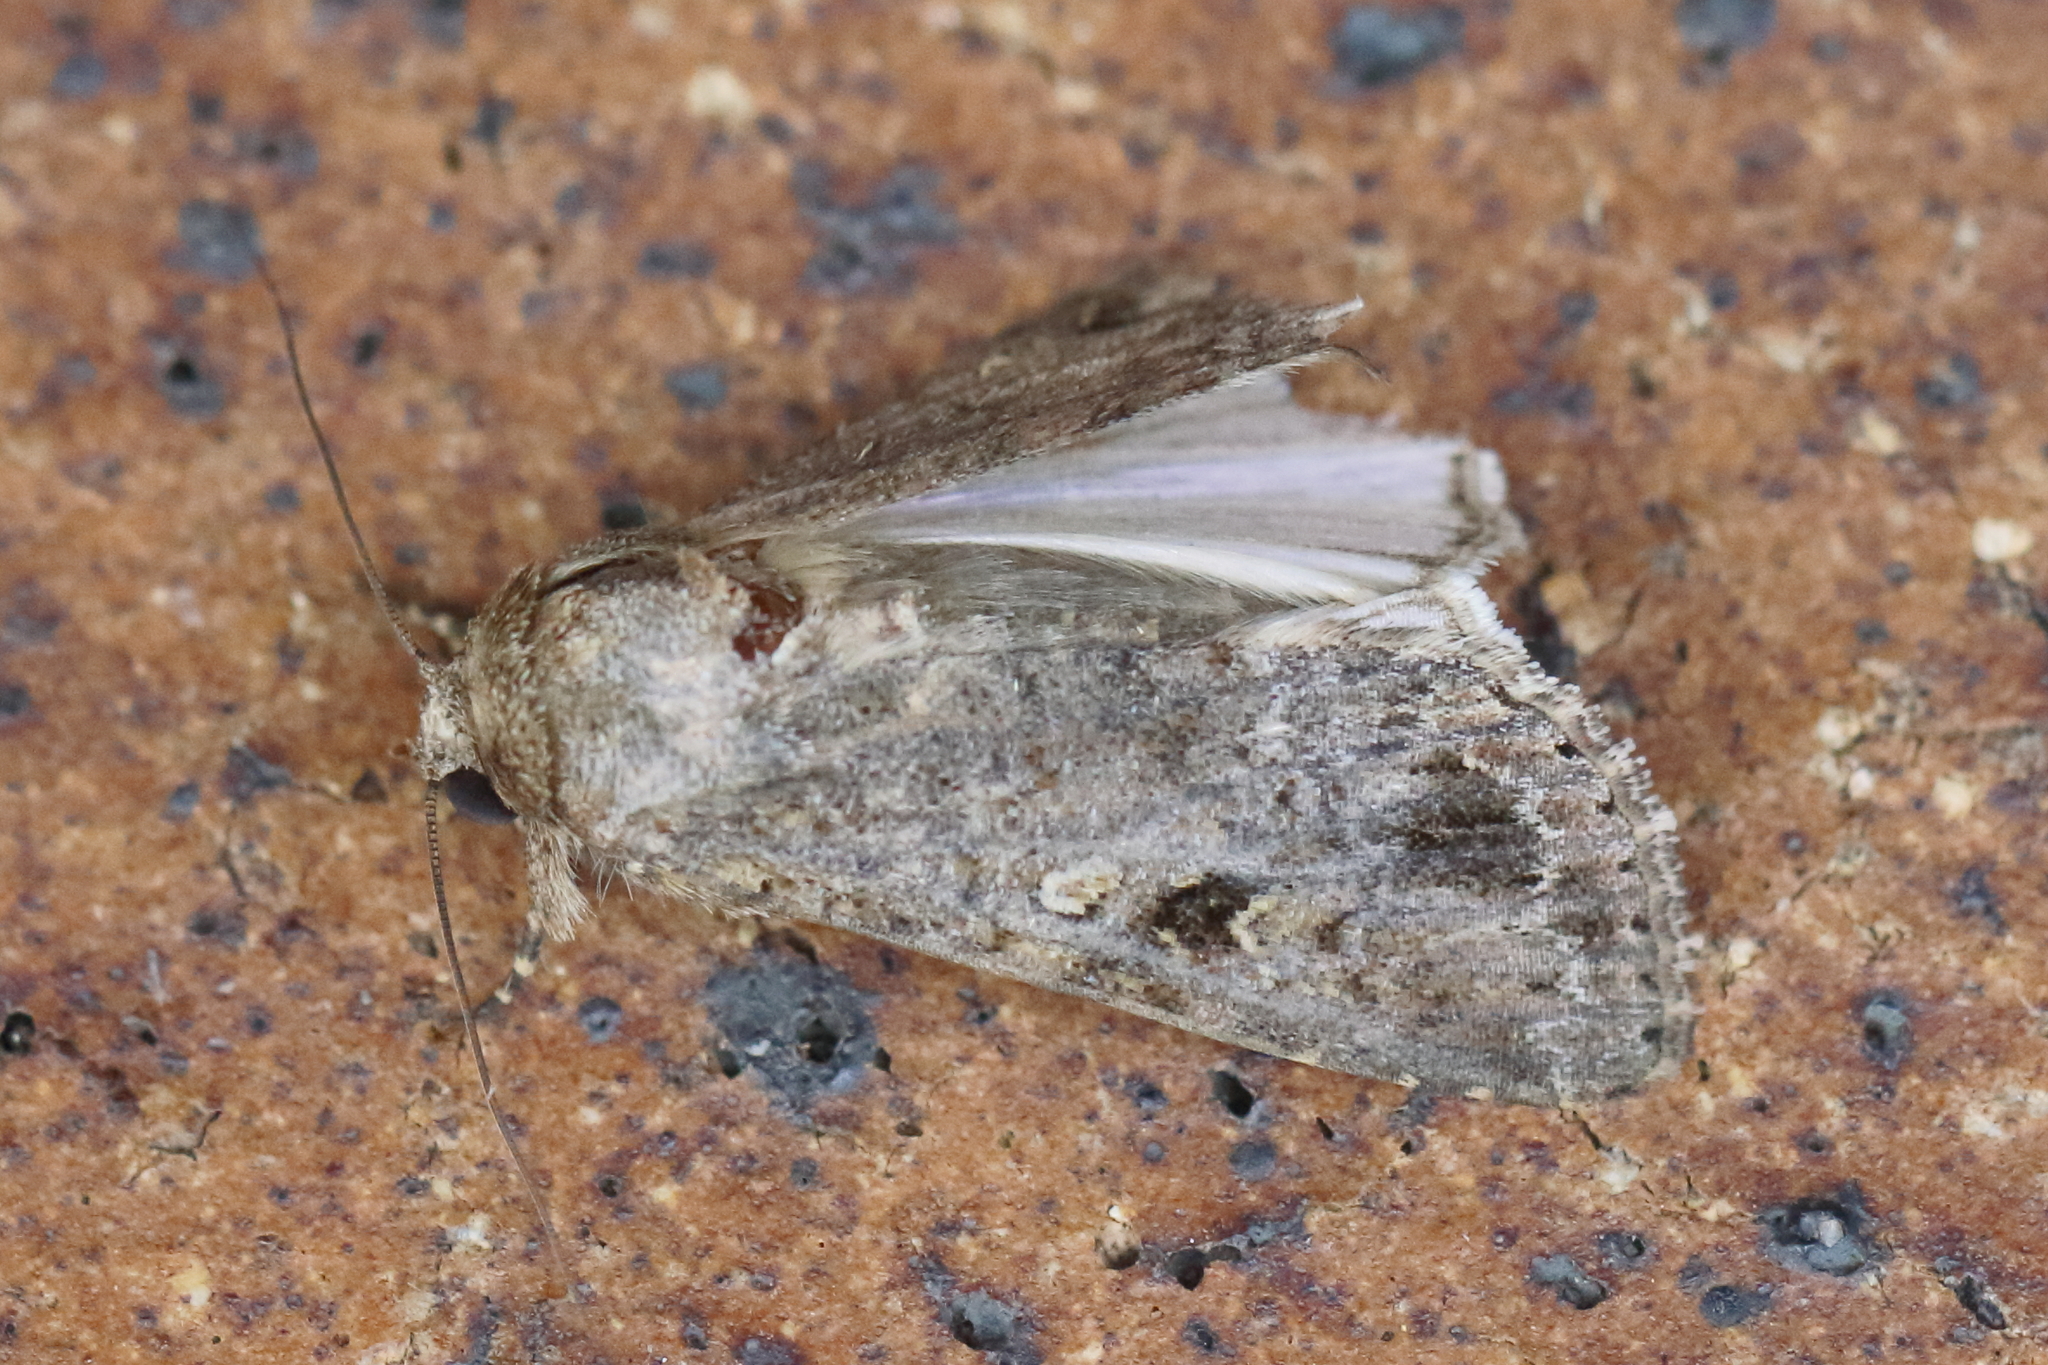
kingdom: Animalia
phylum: Arthropoda
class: Insecta
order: Lepidoptera
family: Noctuidae
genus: Spodoptera
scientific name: Spodoptera mauritia
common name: Lawn armyworm
